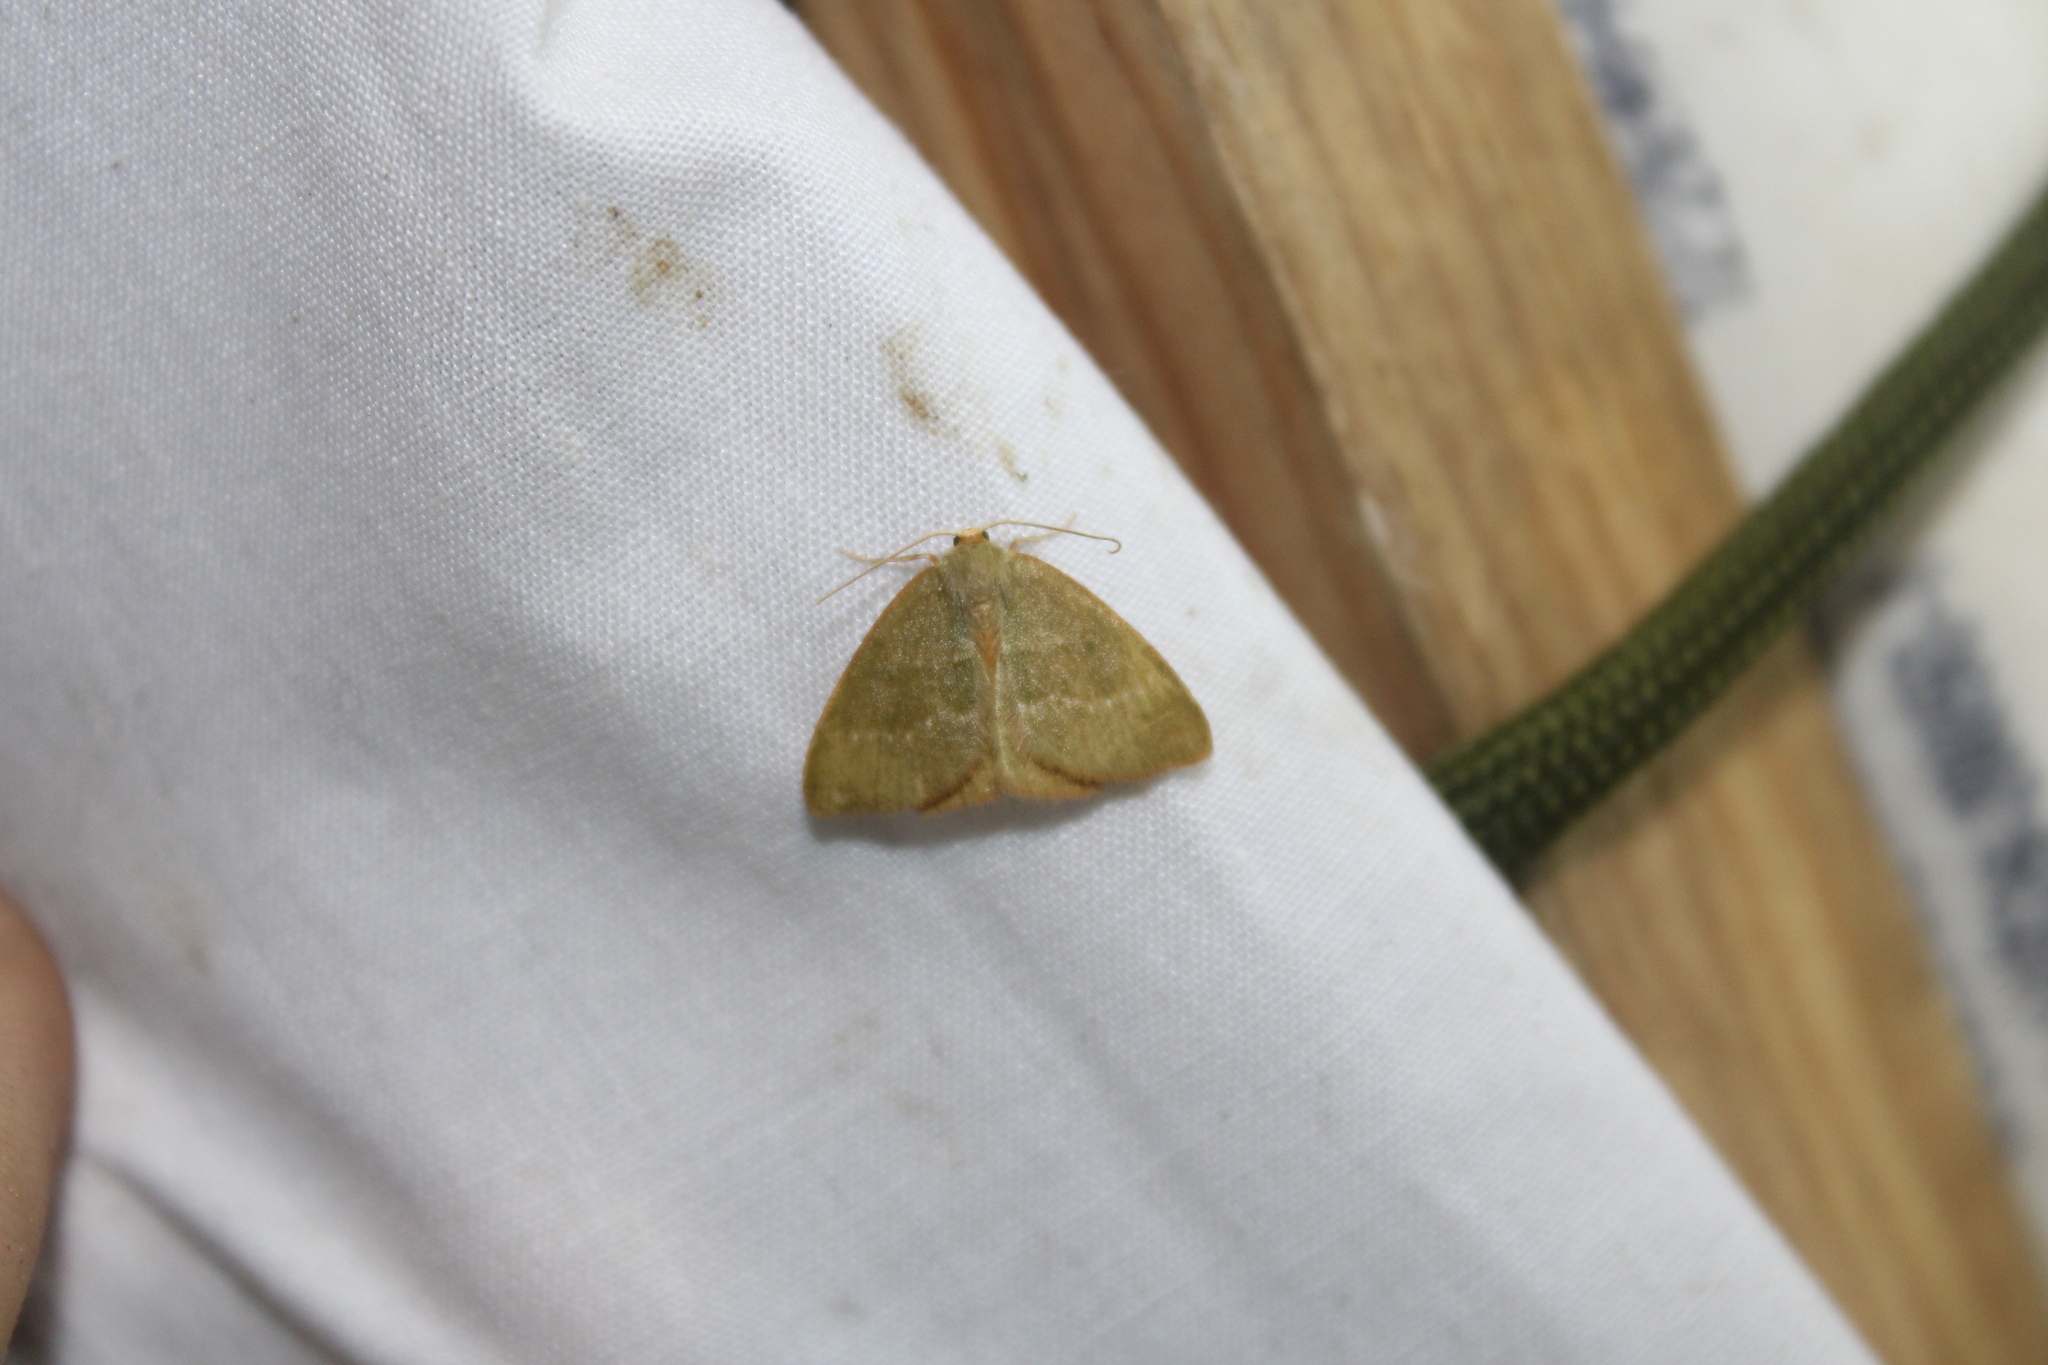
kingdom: Animalia
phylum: Arthropoda
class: Insecta
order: Lepidoptera
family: Geometridae
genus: Thalera
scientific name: Thalera pistasciaria
